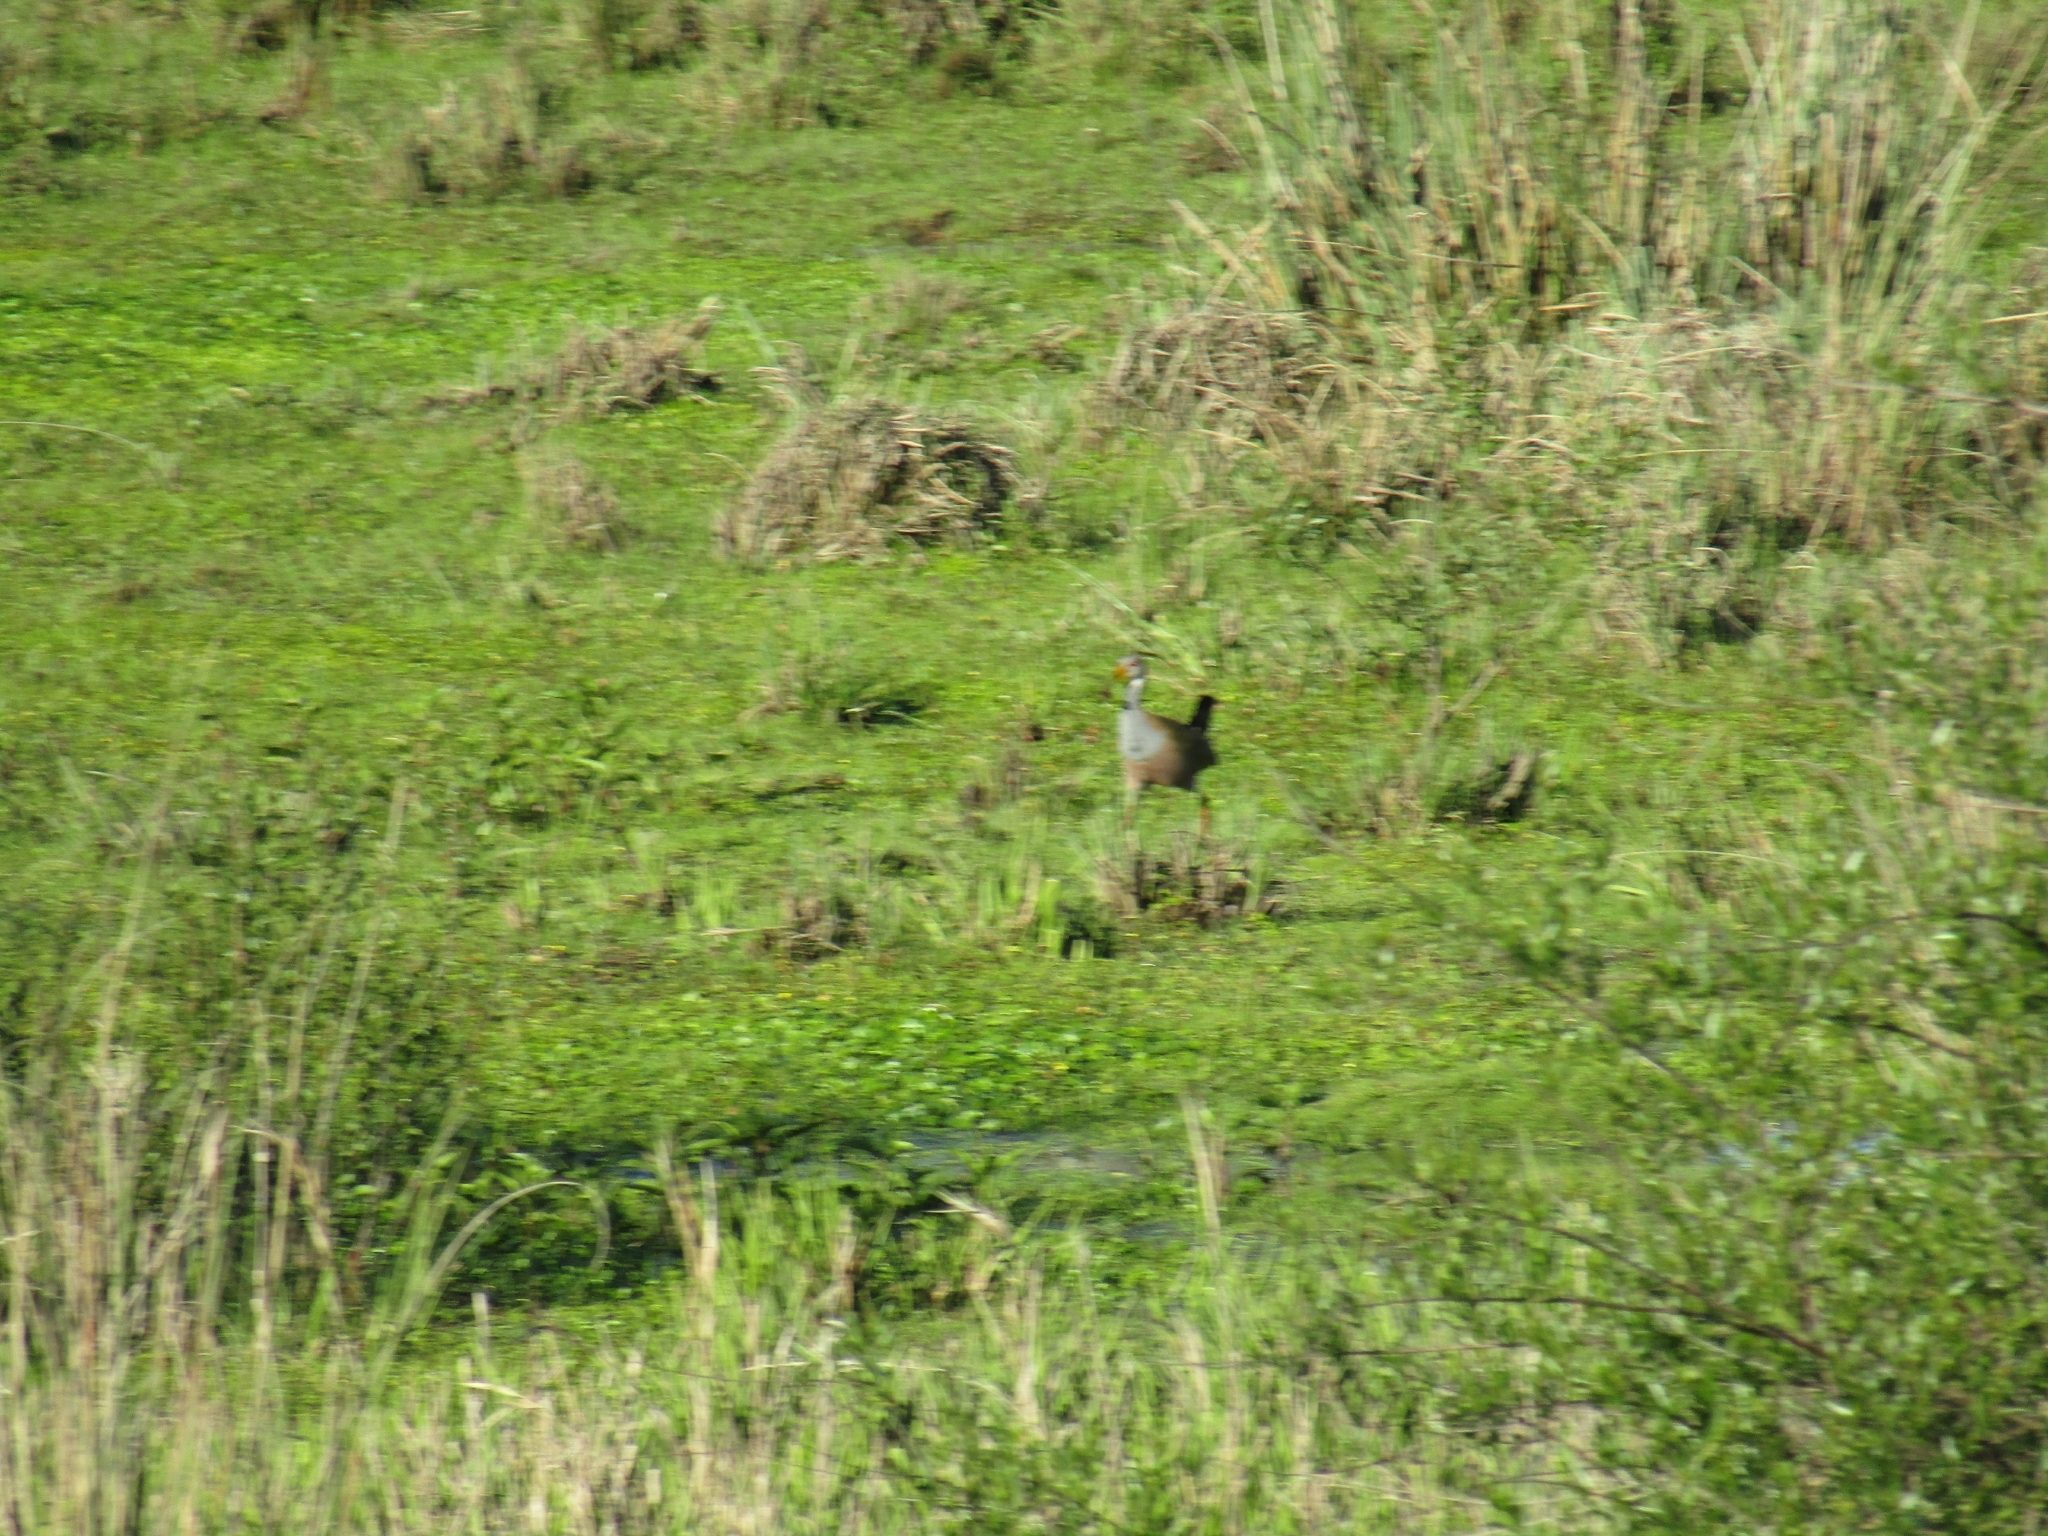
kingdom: Animalia
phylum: Chordata
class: Aves
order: Gruiformes
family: Rallidae
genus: Aramides
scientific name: Aramides ypecaha
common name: Giant wood rail
